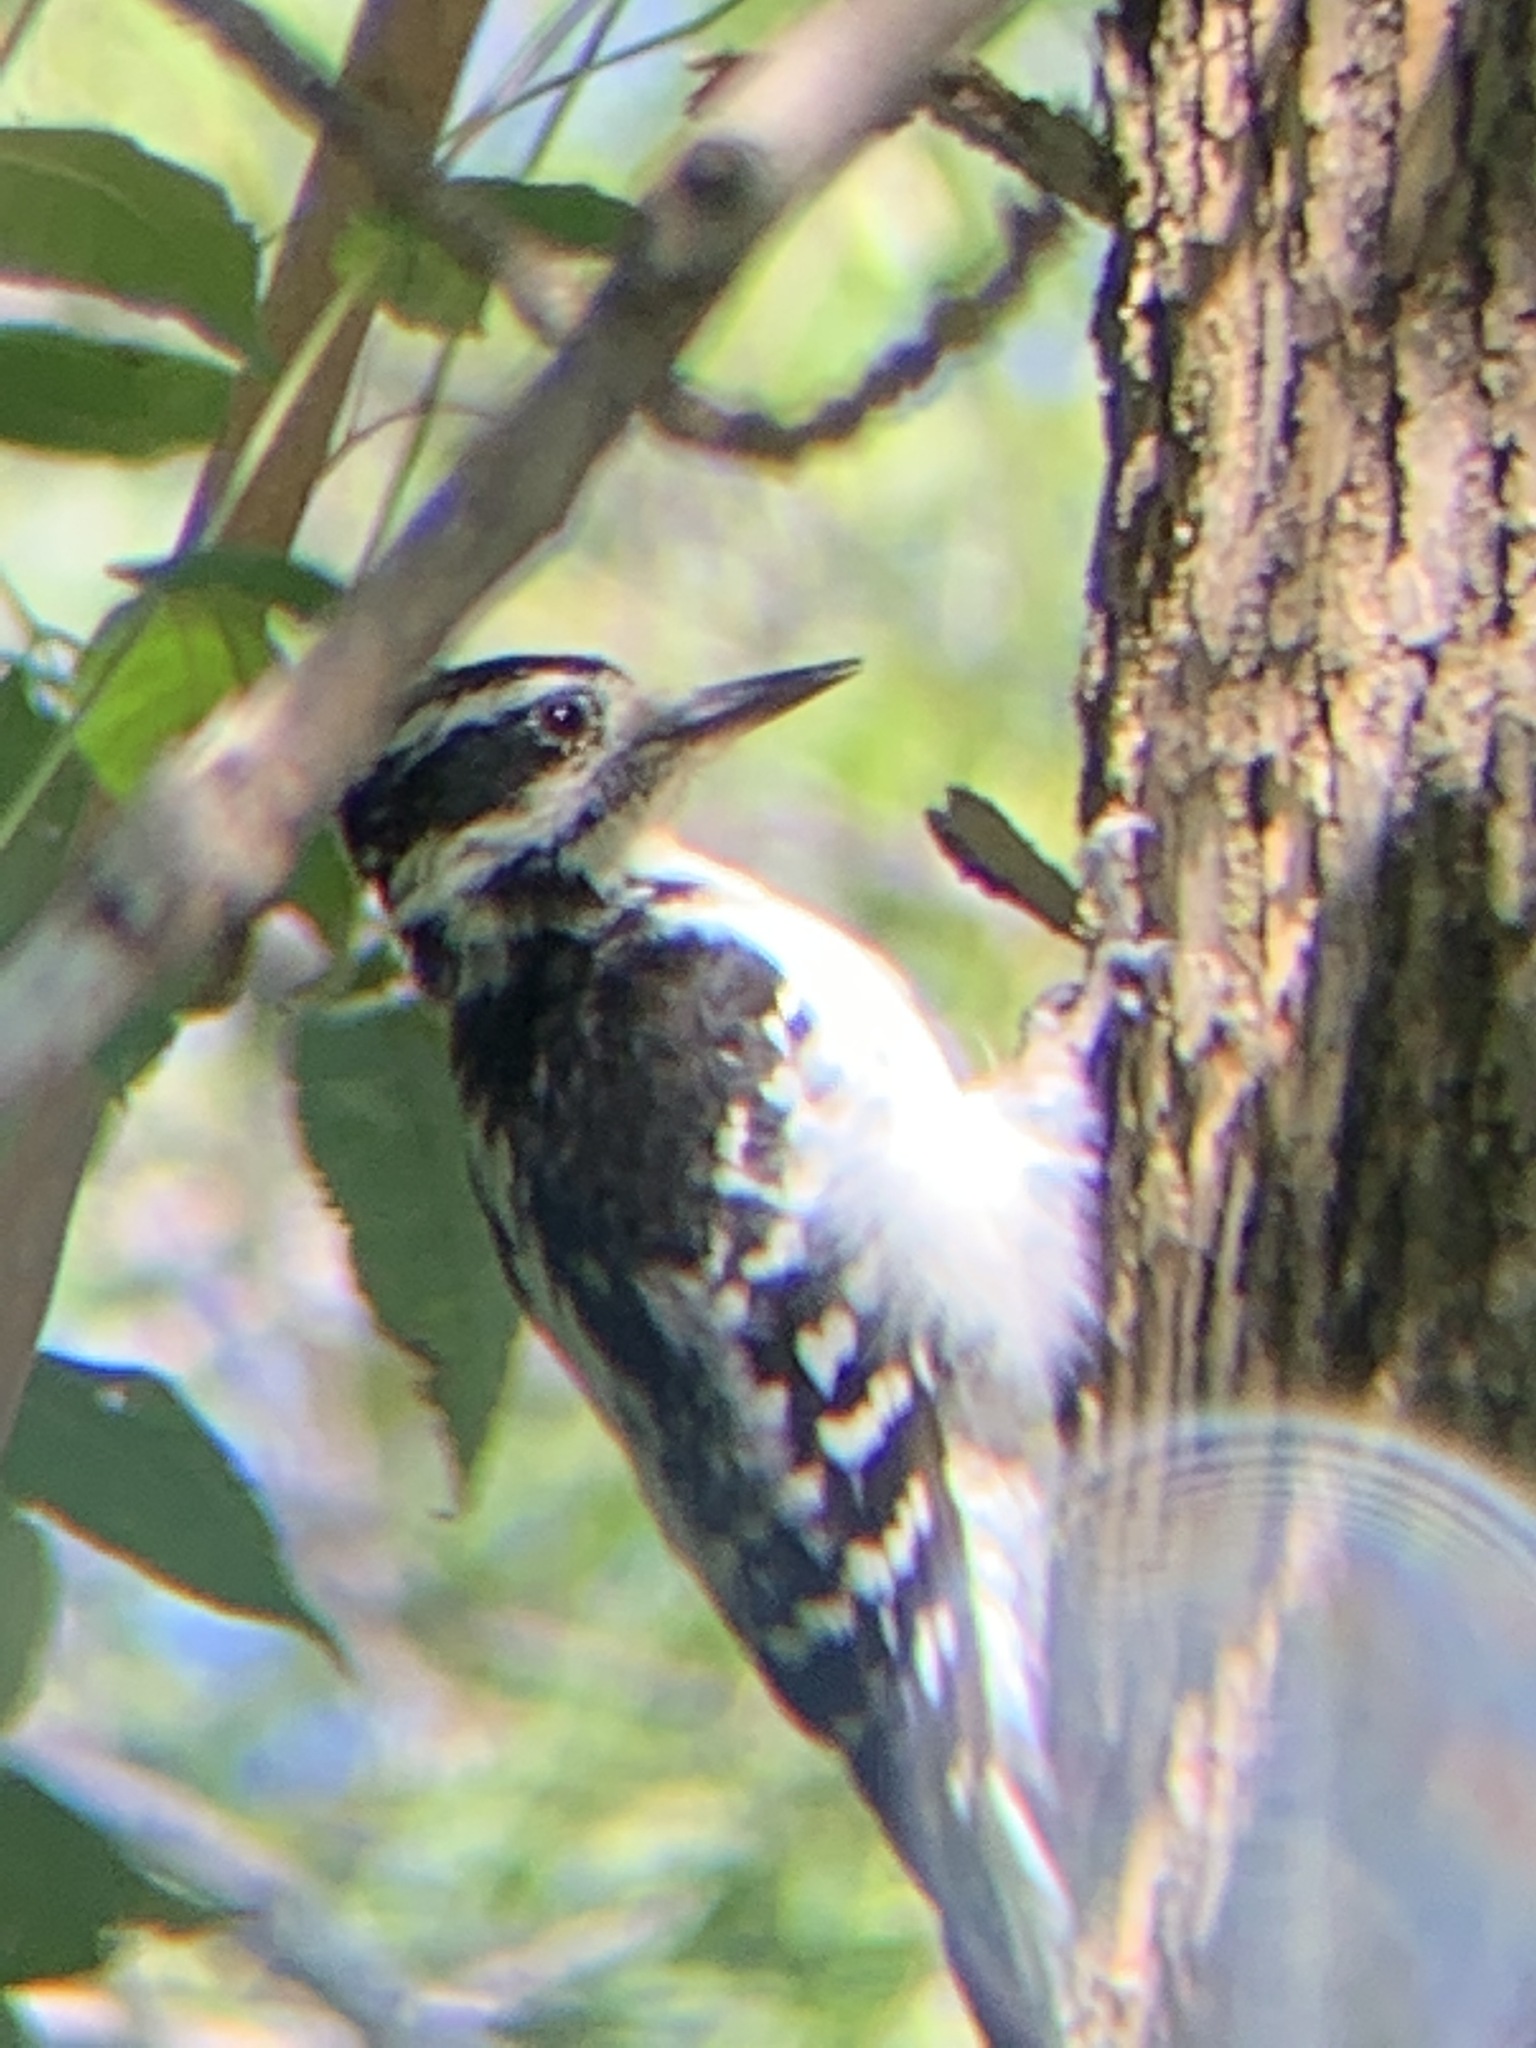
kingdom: Animalia
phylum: Chordata
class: Aves
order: Piciformes
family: Picidae
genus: Leuconotopicus
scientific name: Leuconotopicus villosus
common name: Hairy woodpecker
